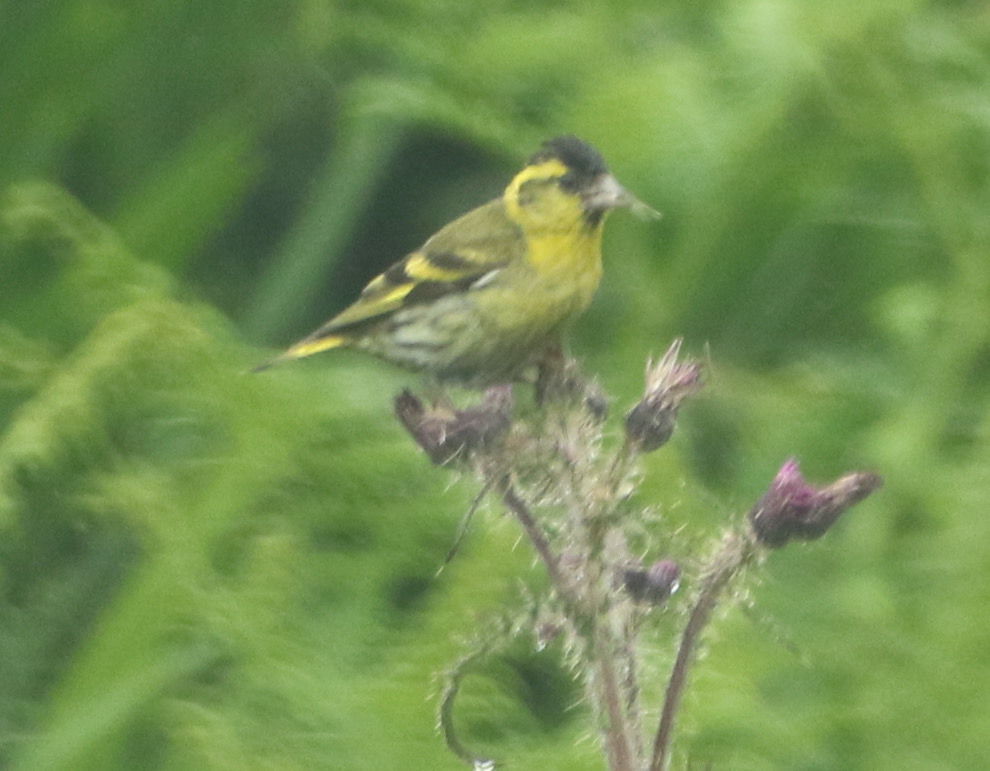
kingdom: Animalia
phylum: Chordata
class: Aves
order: Passeriformes
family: Fringillidae
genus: Spinus
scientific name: Spinus spinus
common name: Eurasian siskin
